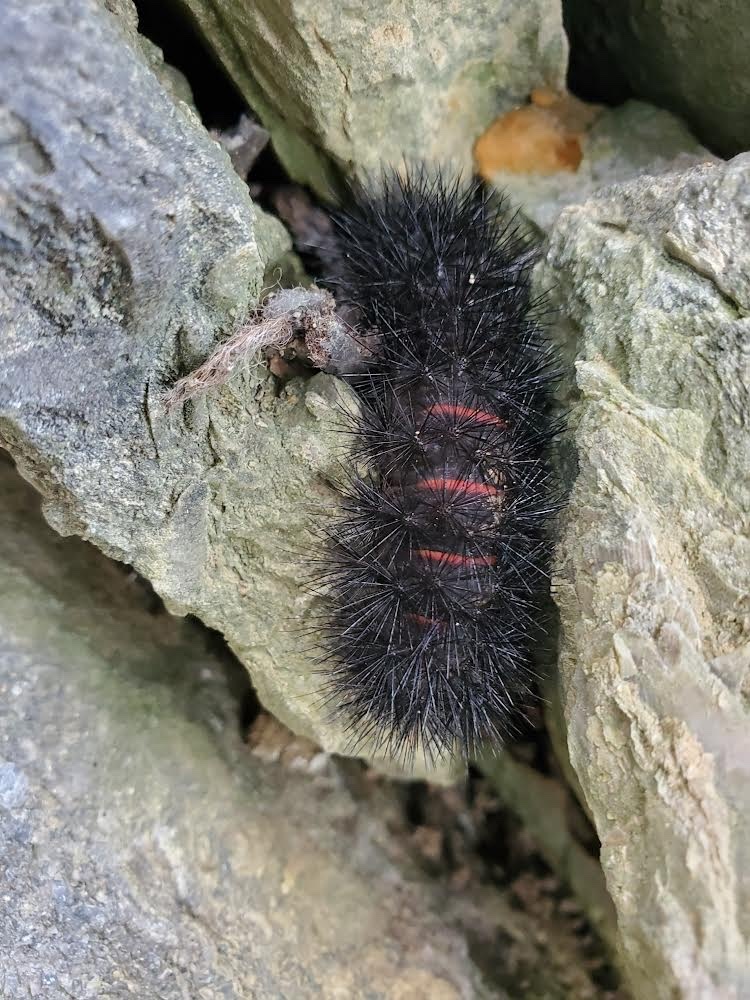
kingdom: Animalia
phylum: Arthropoda
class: Insecta
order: Lepidoptera
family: Erebidae
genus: Hypercompe
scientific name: Hypercompe scribonia
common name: Giant leopard moth
